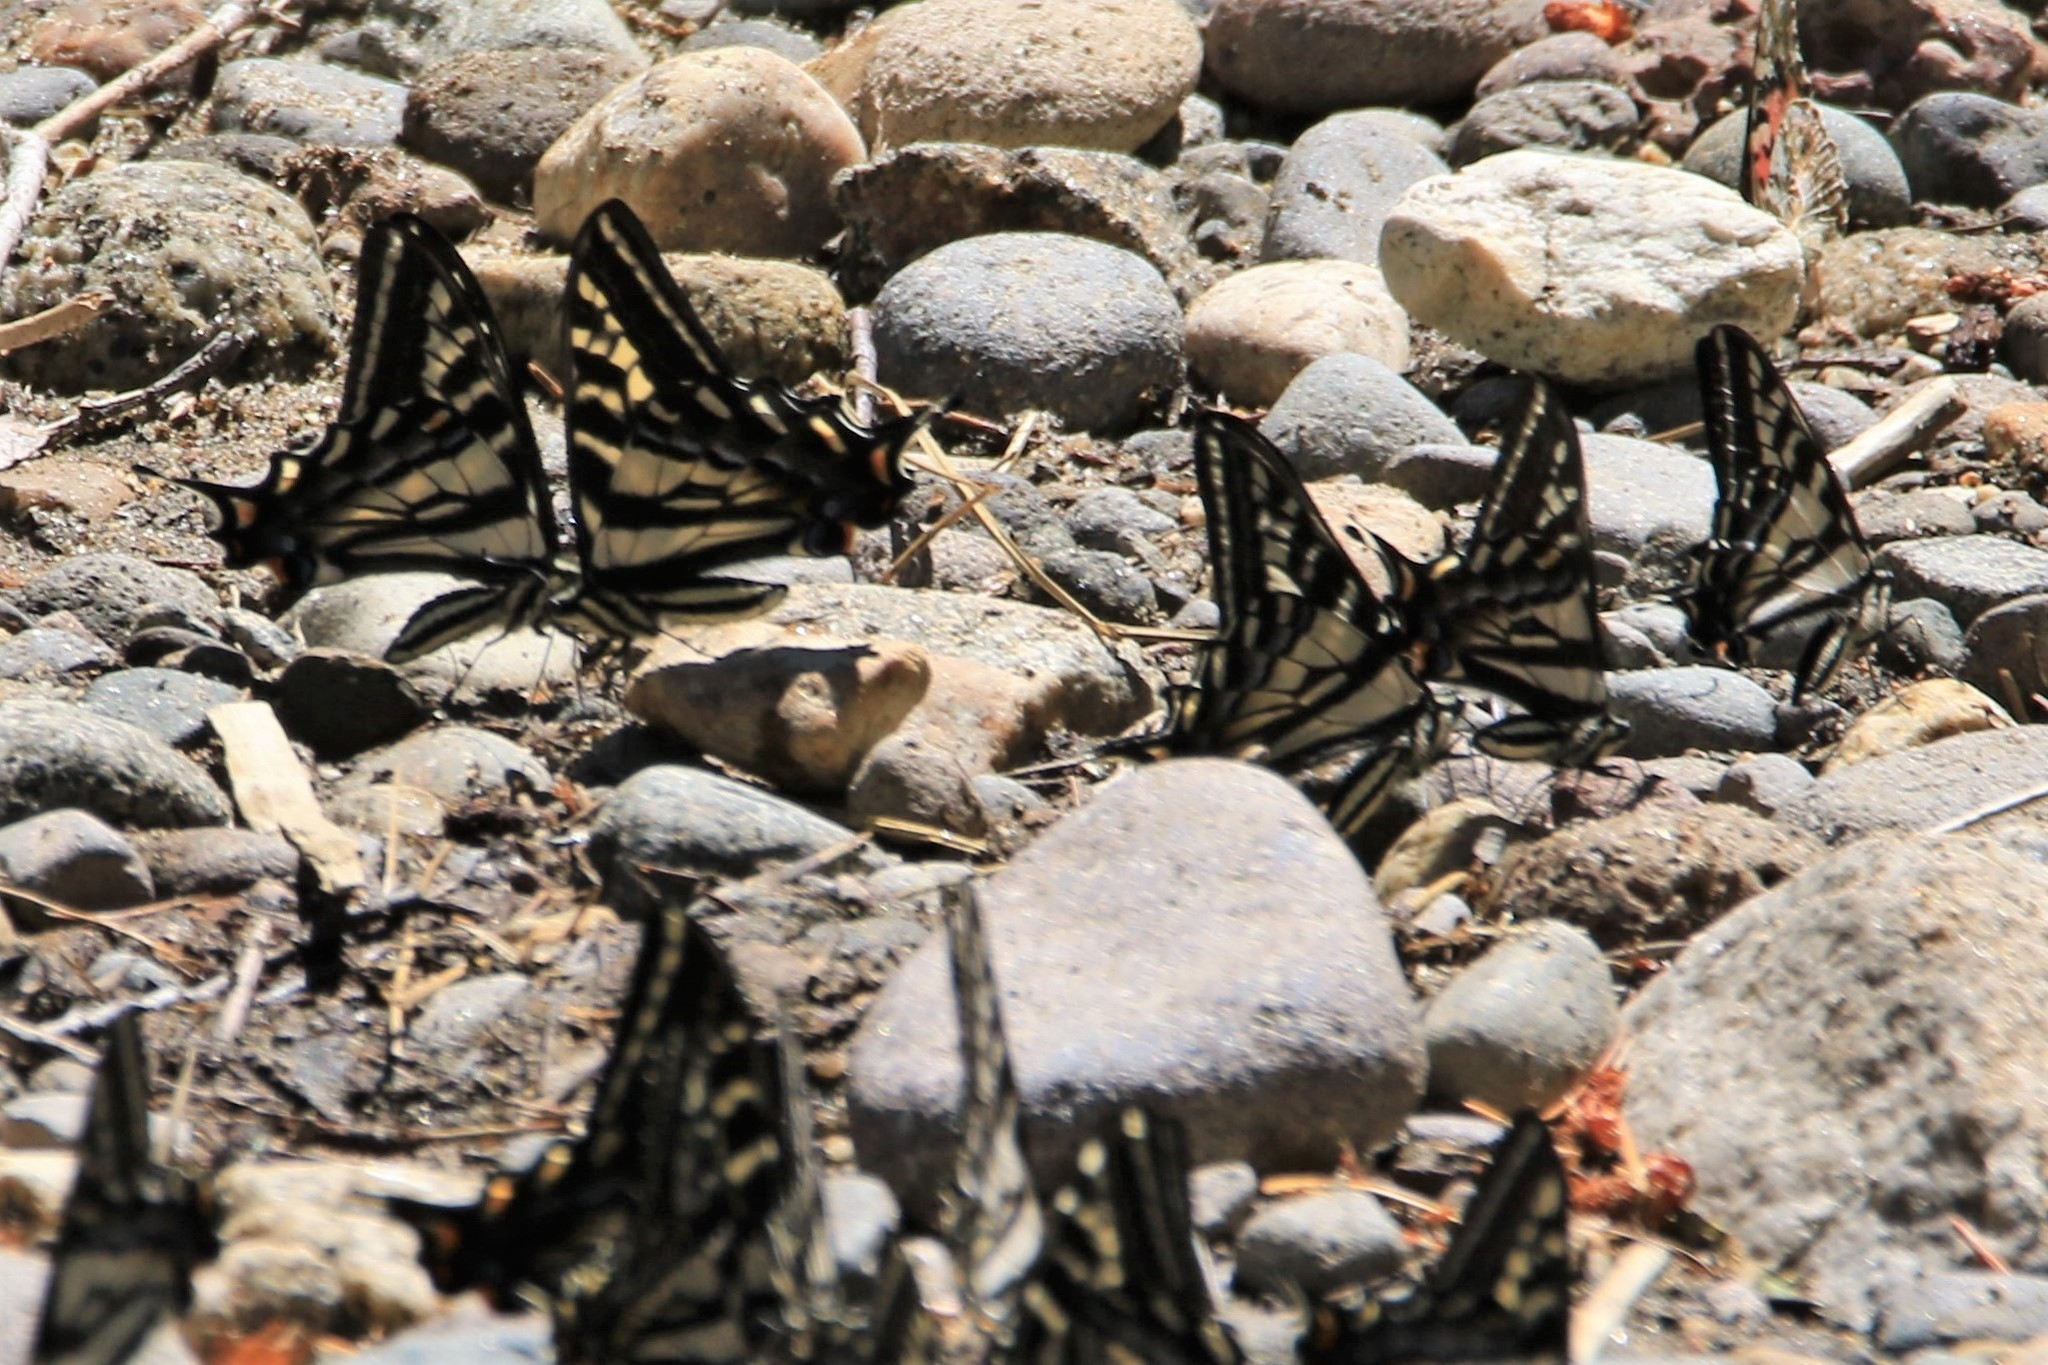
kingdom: Animalia
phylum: Arthropoda
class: Insecta
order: Lepidoptera
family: Papilionidae
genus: Papilio
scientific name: Papilio eurymedon
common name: Pale tiger swallowtail
